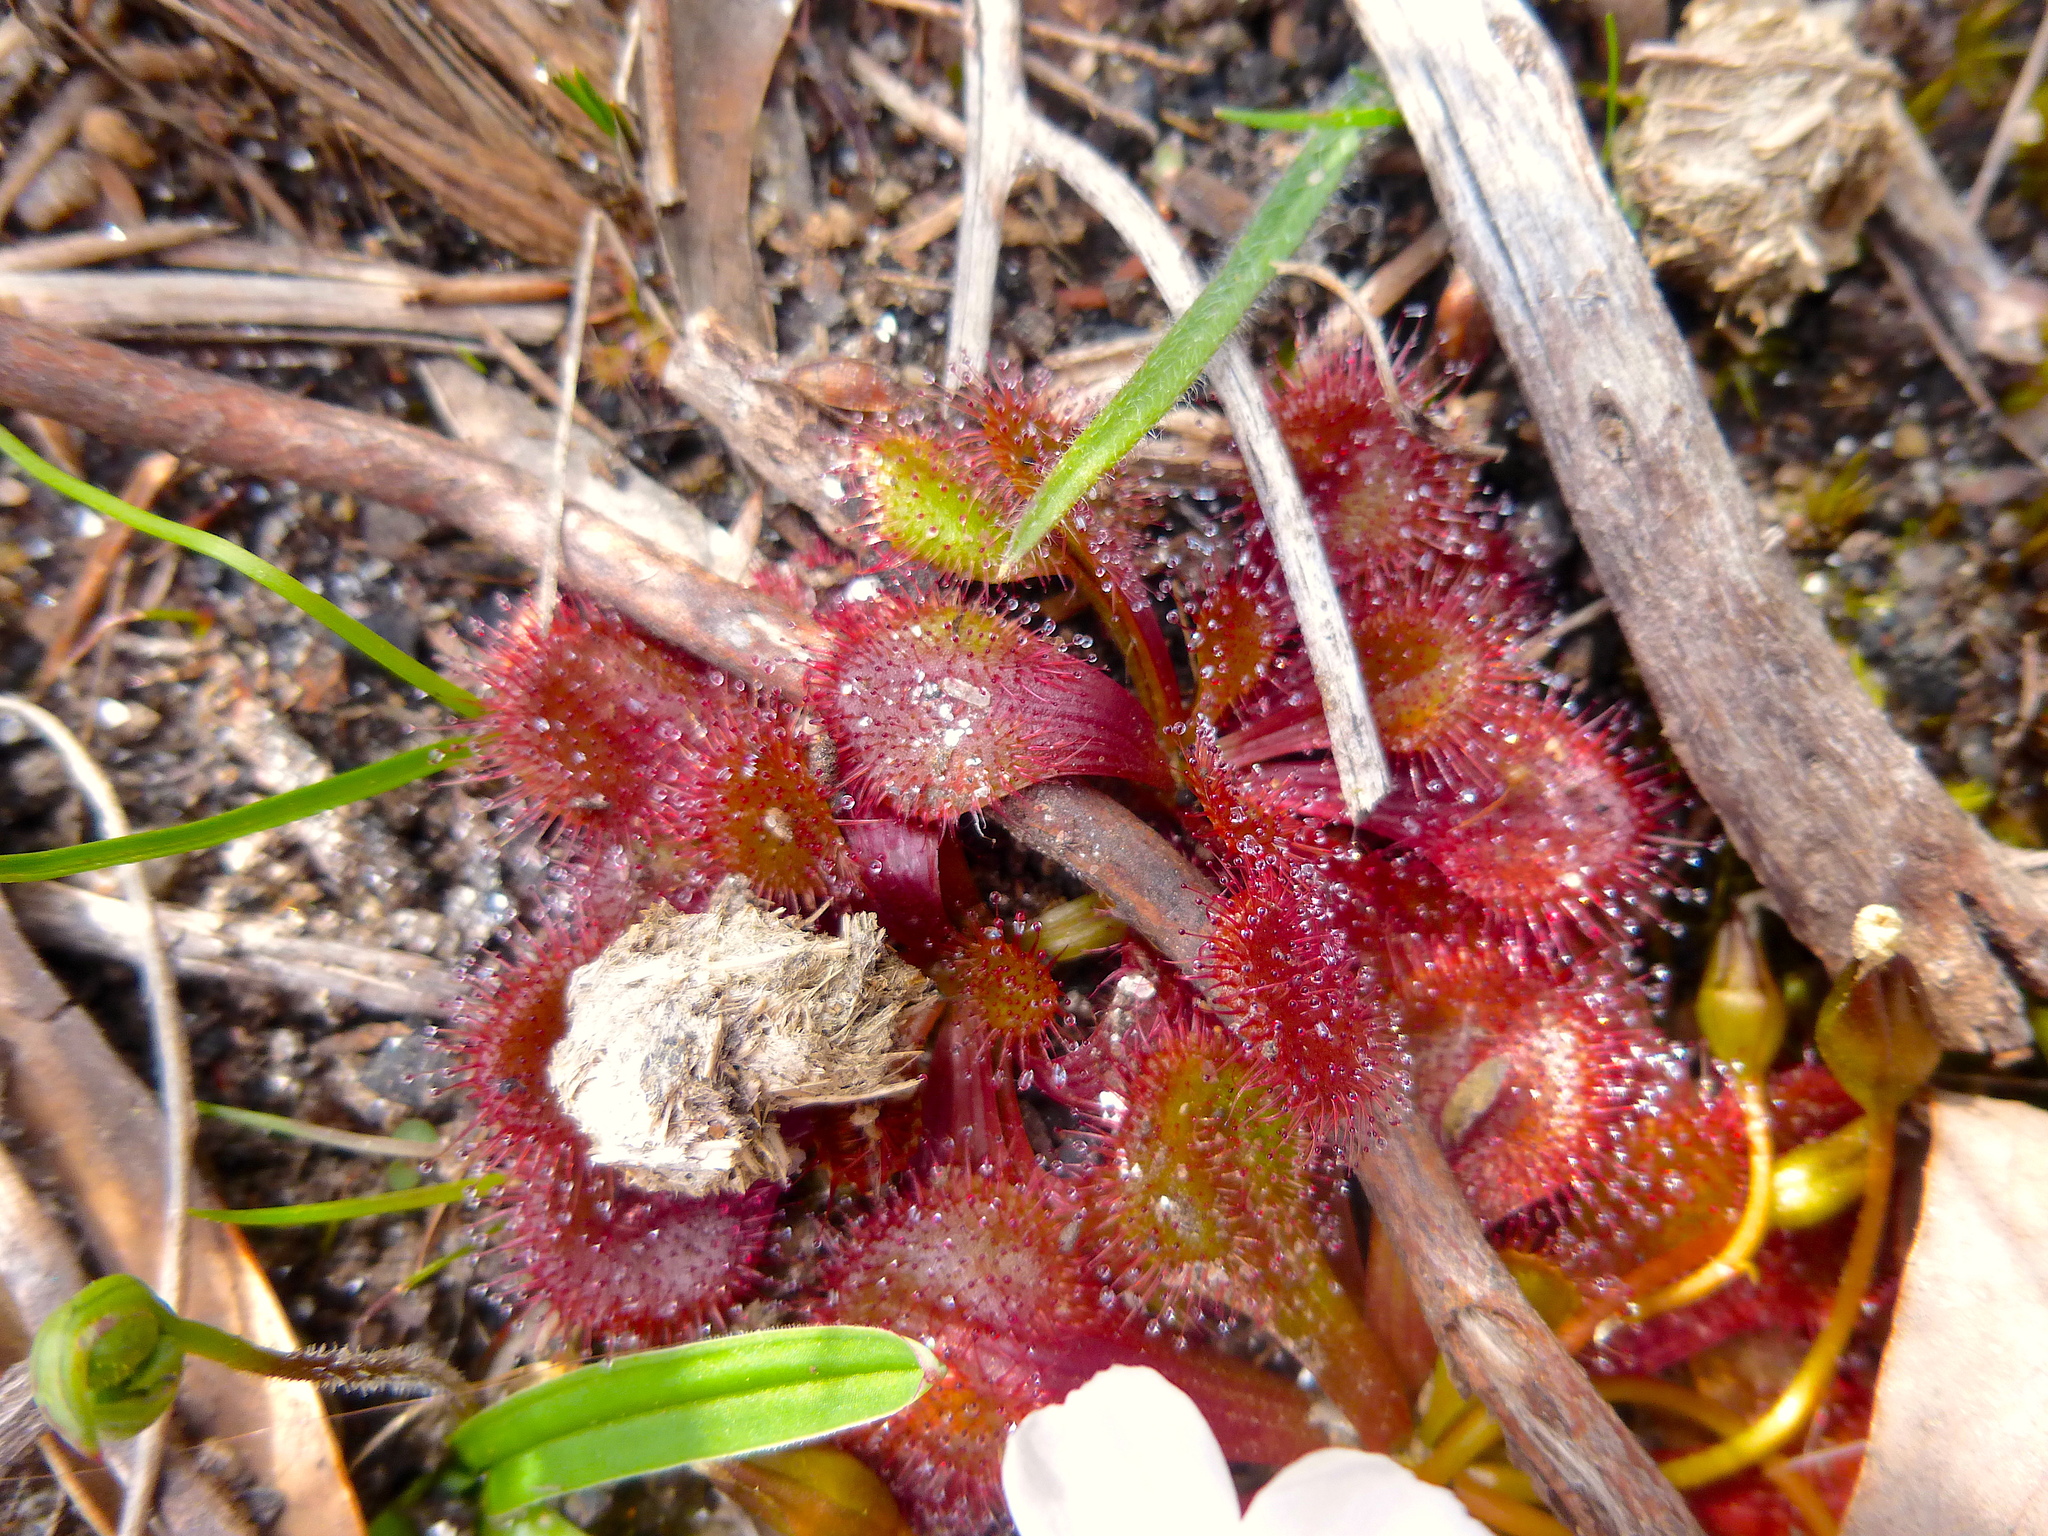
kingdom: Plantae
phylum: Tracheophyta
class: Magnoliopsida
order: Caryophyllales
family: Droseraceae
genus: Drosera
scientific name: Drosera whittakeri
